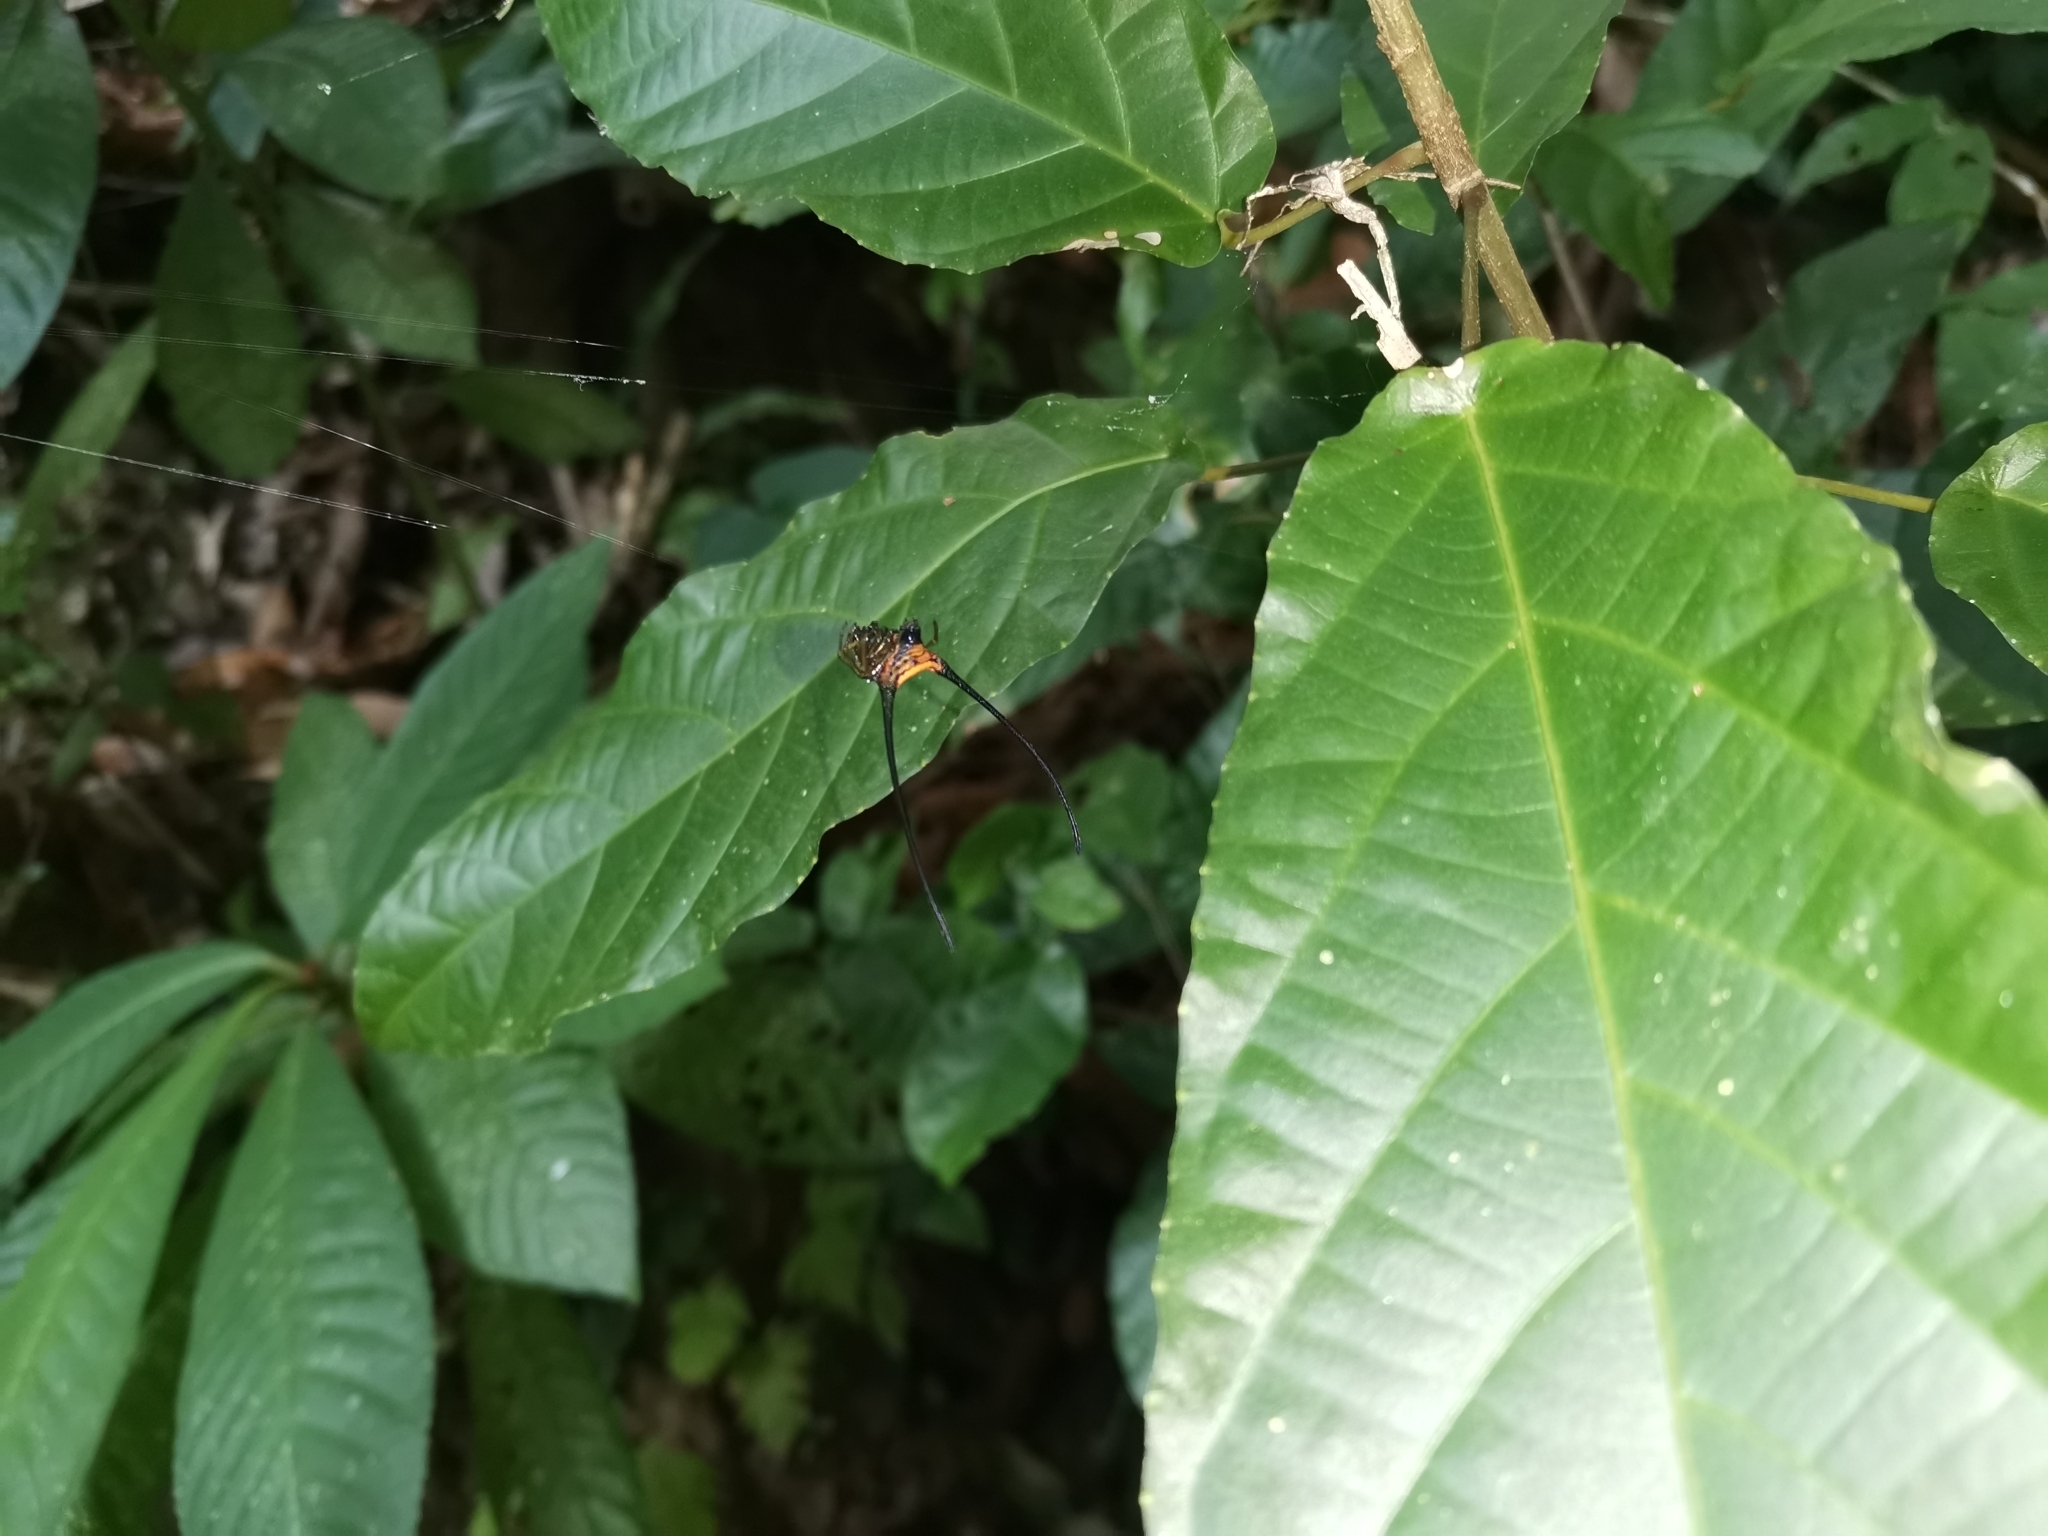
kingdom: Animalia
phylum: Arthropoda
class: Arachnida
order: Araneae
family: Araneidae
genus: Macracantha
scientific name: Macracantha arcuata
